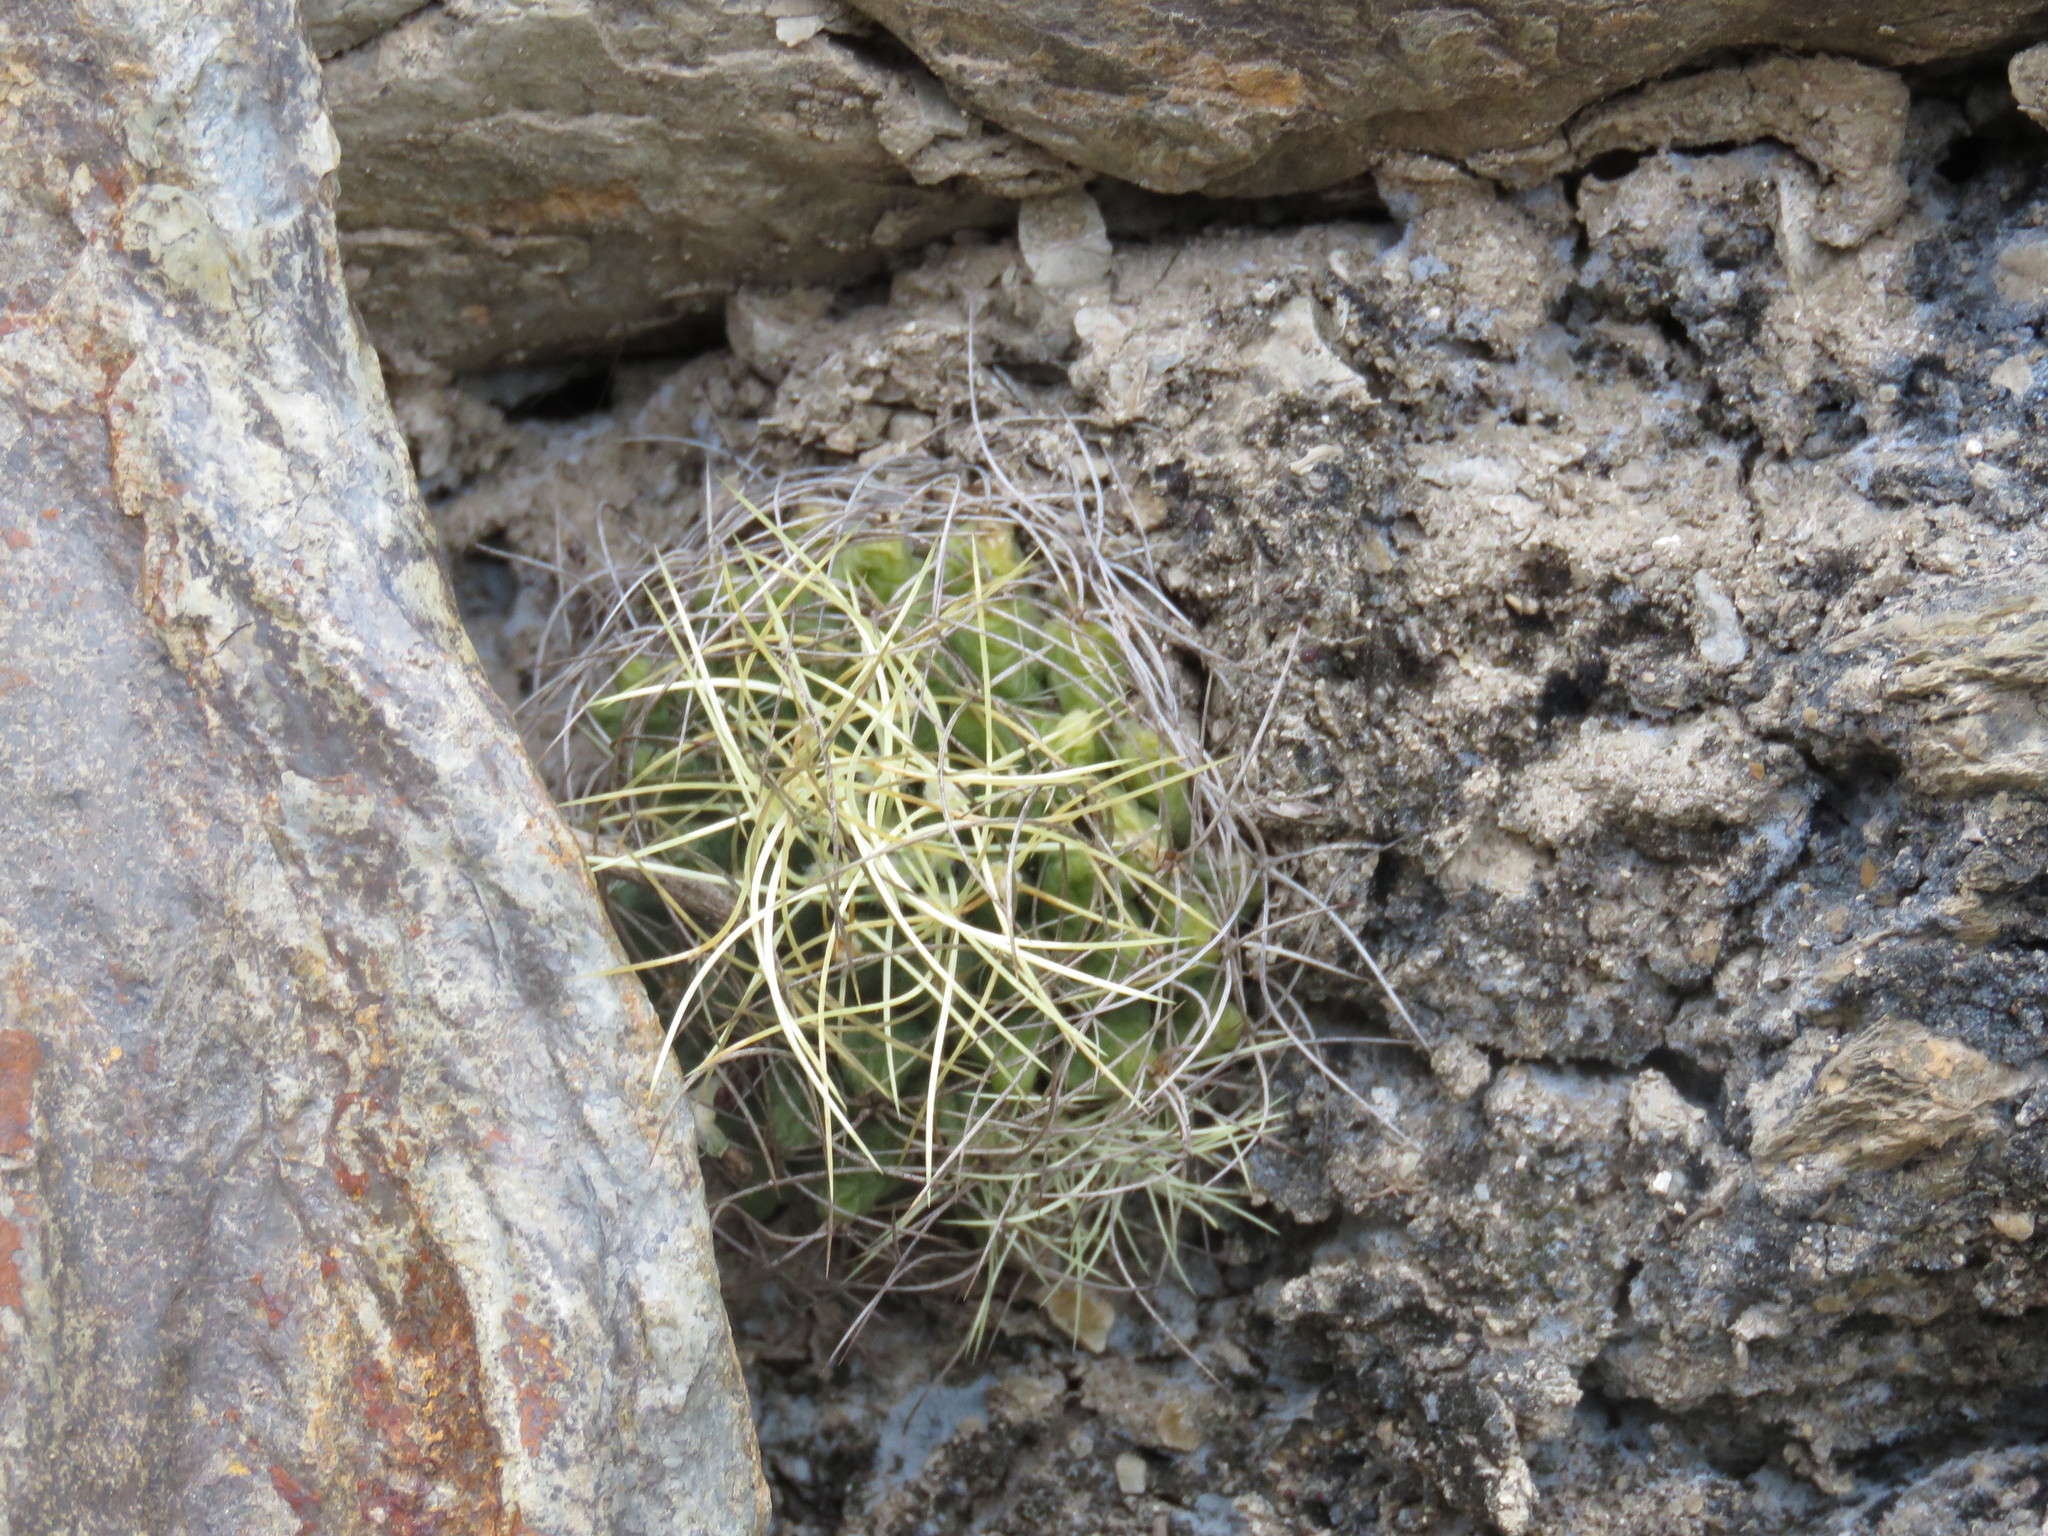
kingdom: Plantae
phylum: Tracheophyta
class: Magnoliopsida
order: Caryophyllales
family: Cactaceae
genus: Mammillaria
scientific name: Mammillaria decipiens
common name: Bird's-nest pincushion
